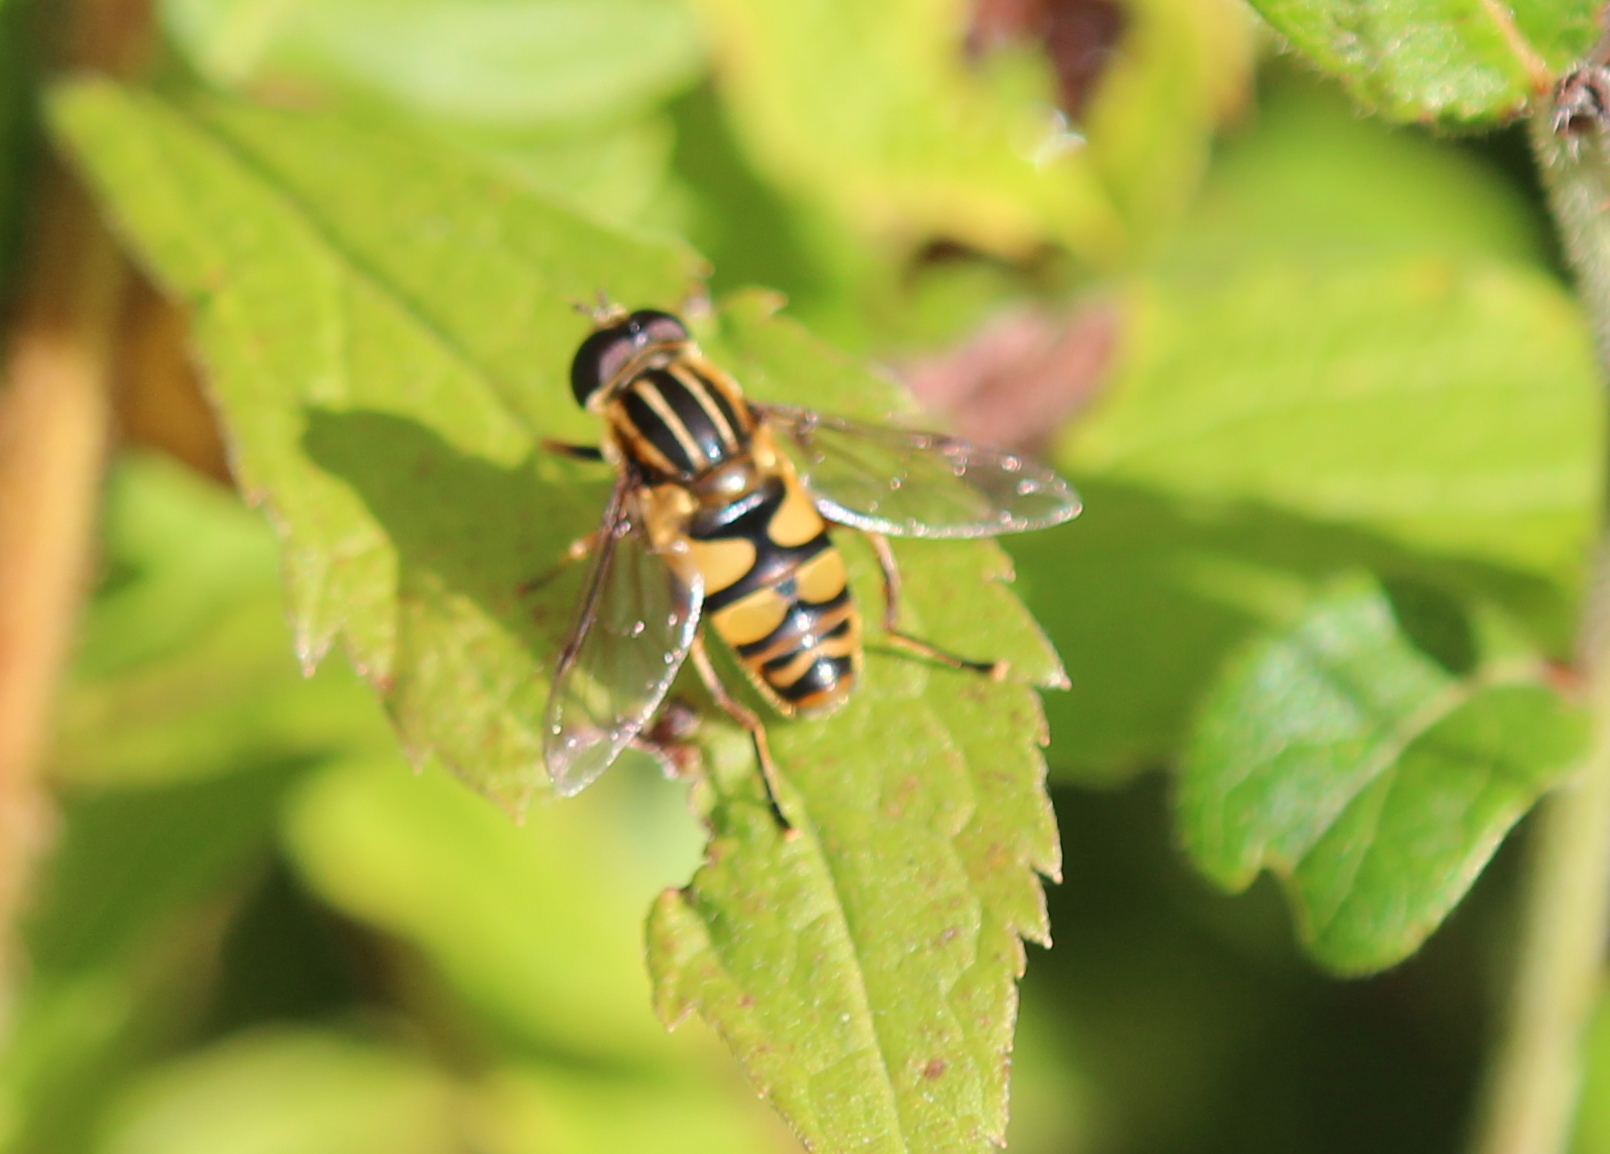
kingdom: Animalia
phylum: Arthropoda
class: Insecta
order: Diptera
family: Syrphidae
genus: Helophilus
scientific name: Helophilus fasciatus
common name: Narrow-headed marsh fly
